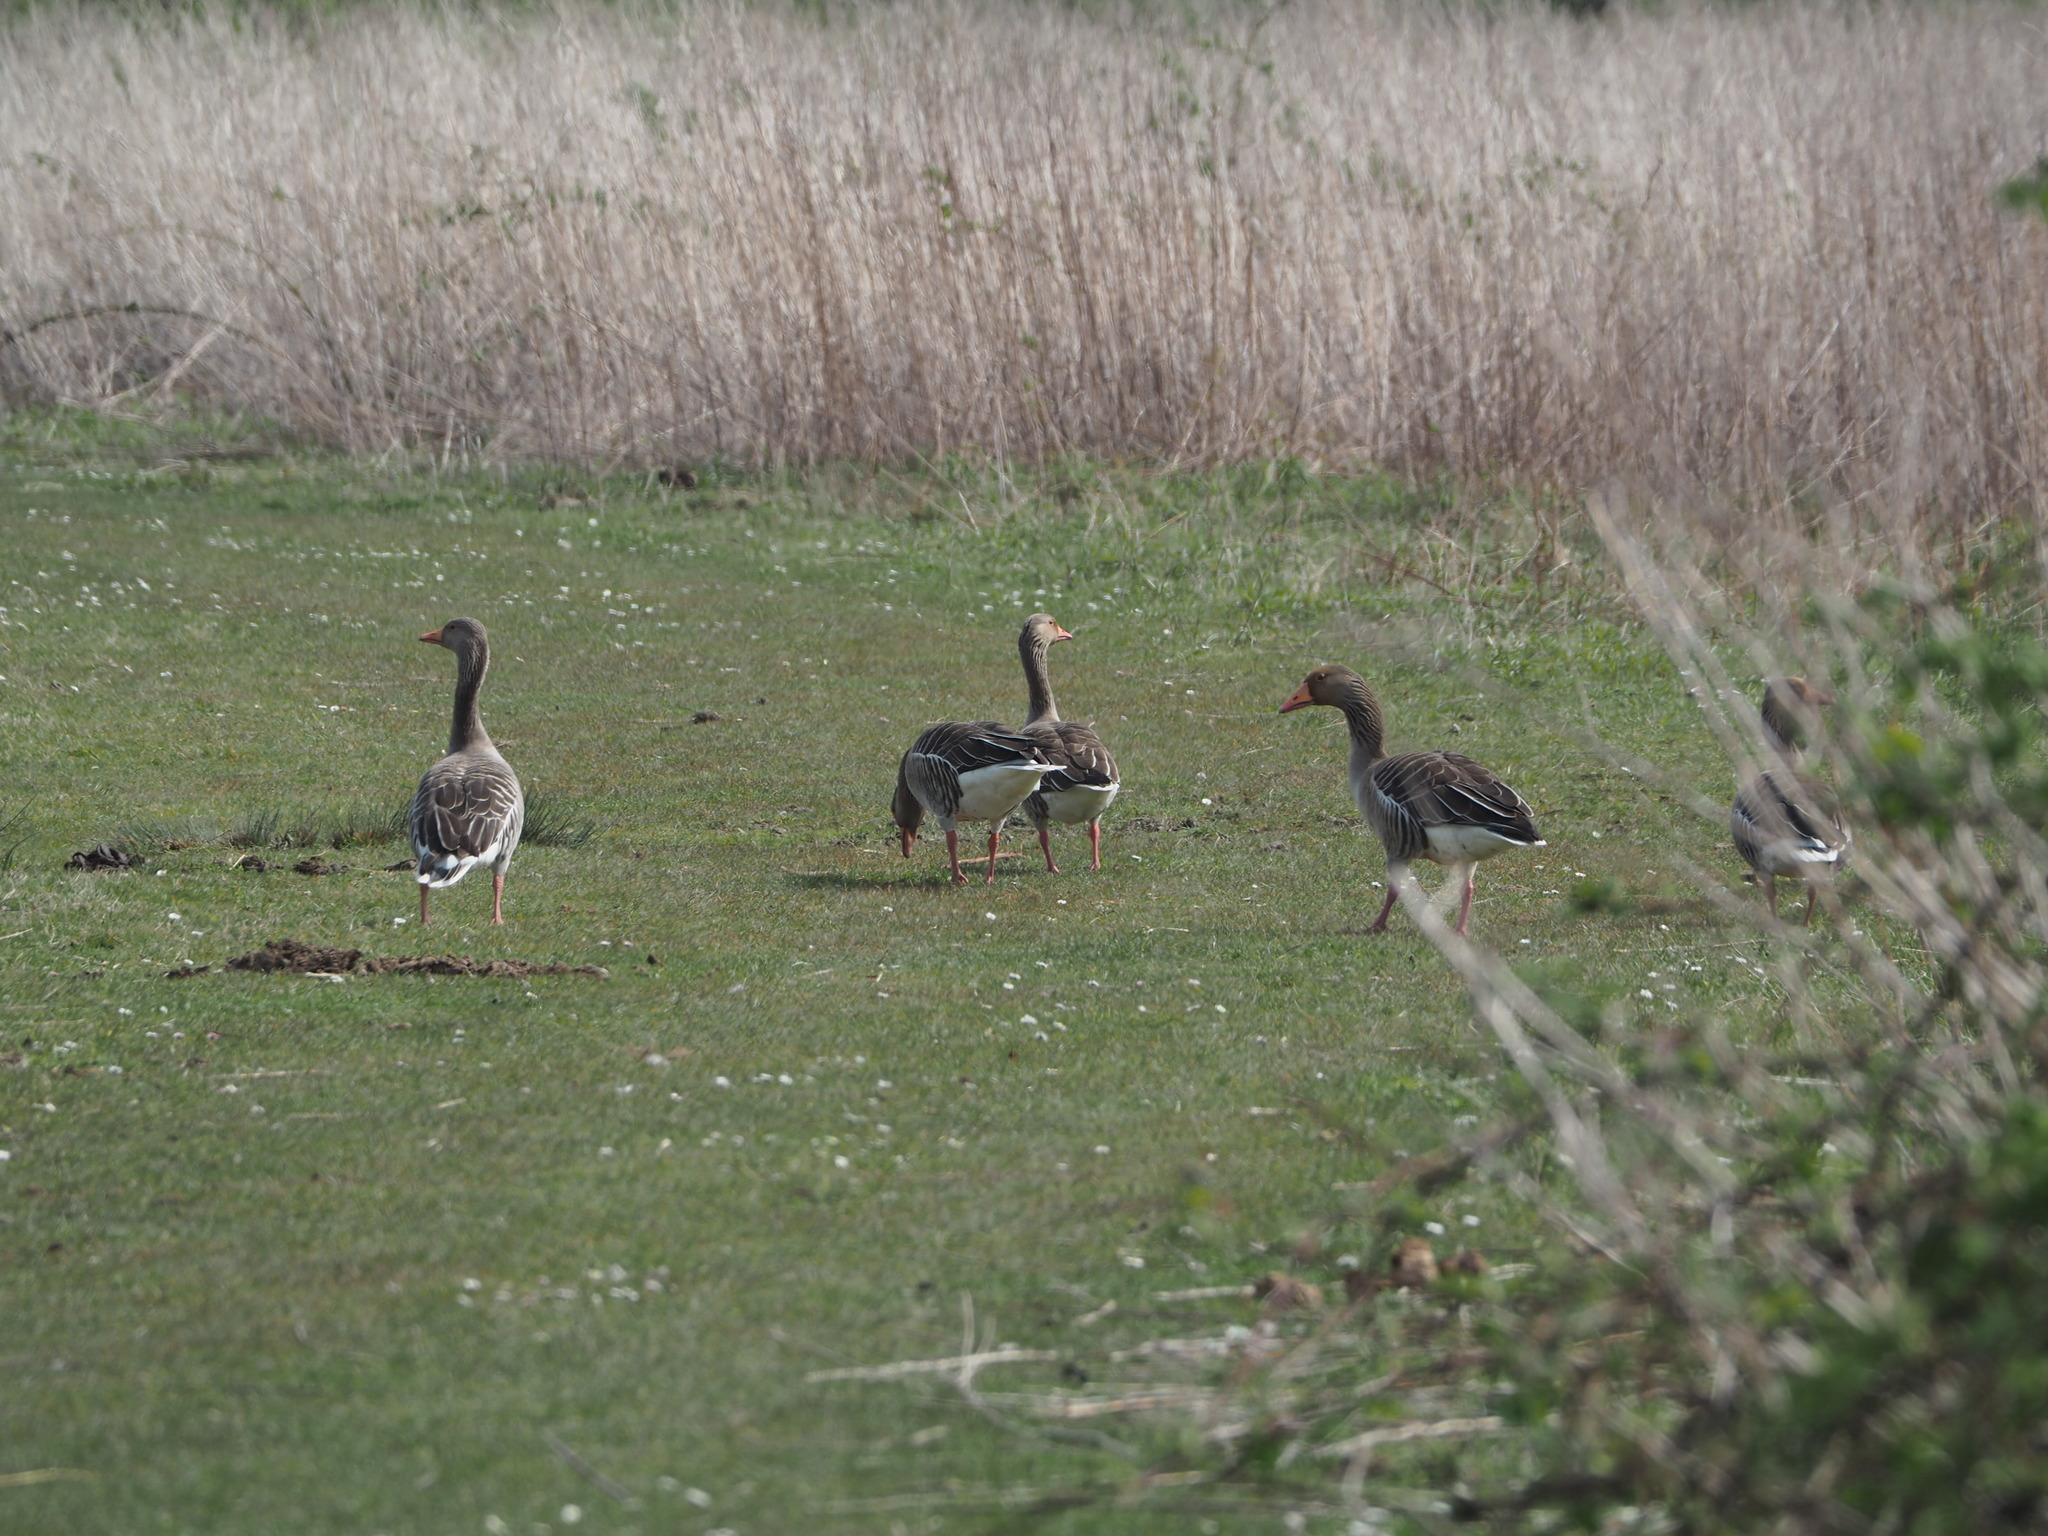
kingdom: Animalia
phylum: Chordata
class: Aves
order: Anseriformes
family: Anatidae
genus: Anser
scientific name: Anser anser
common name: Greylag goose
